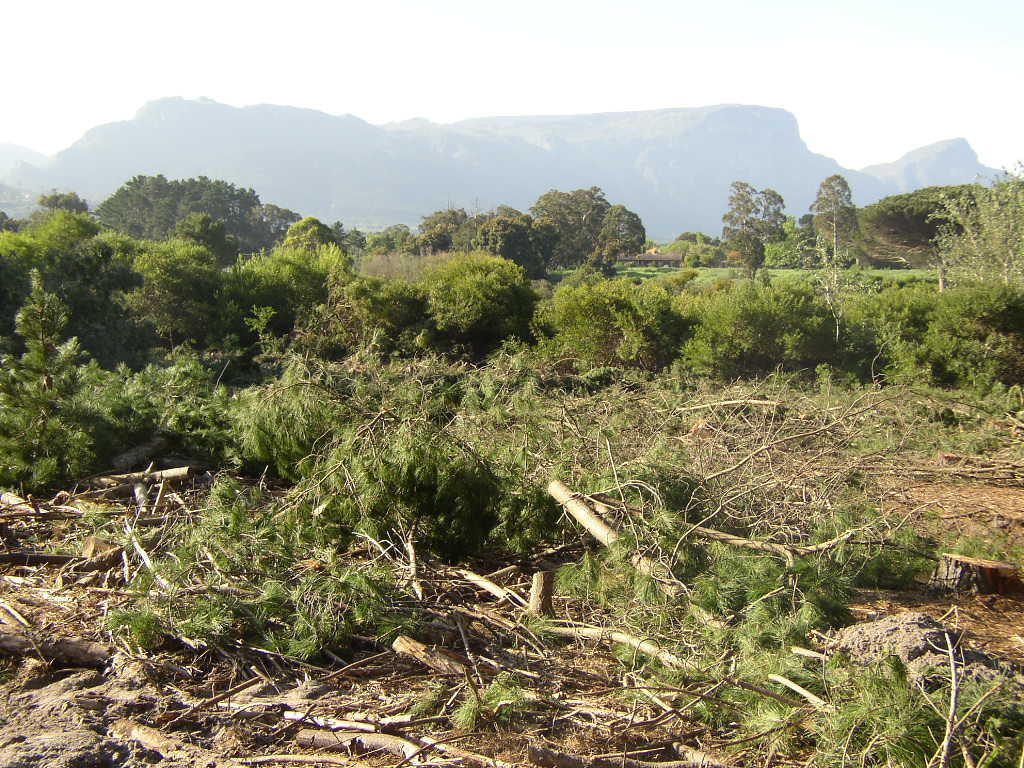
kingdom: Plantae
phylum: Tracheophyta
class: Magnoliopsida
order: Fabales
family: Fabaceae
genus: Acacia
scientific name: Acacia longifolia
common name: Sydney golden wattle
